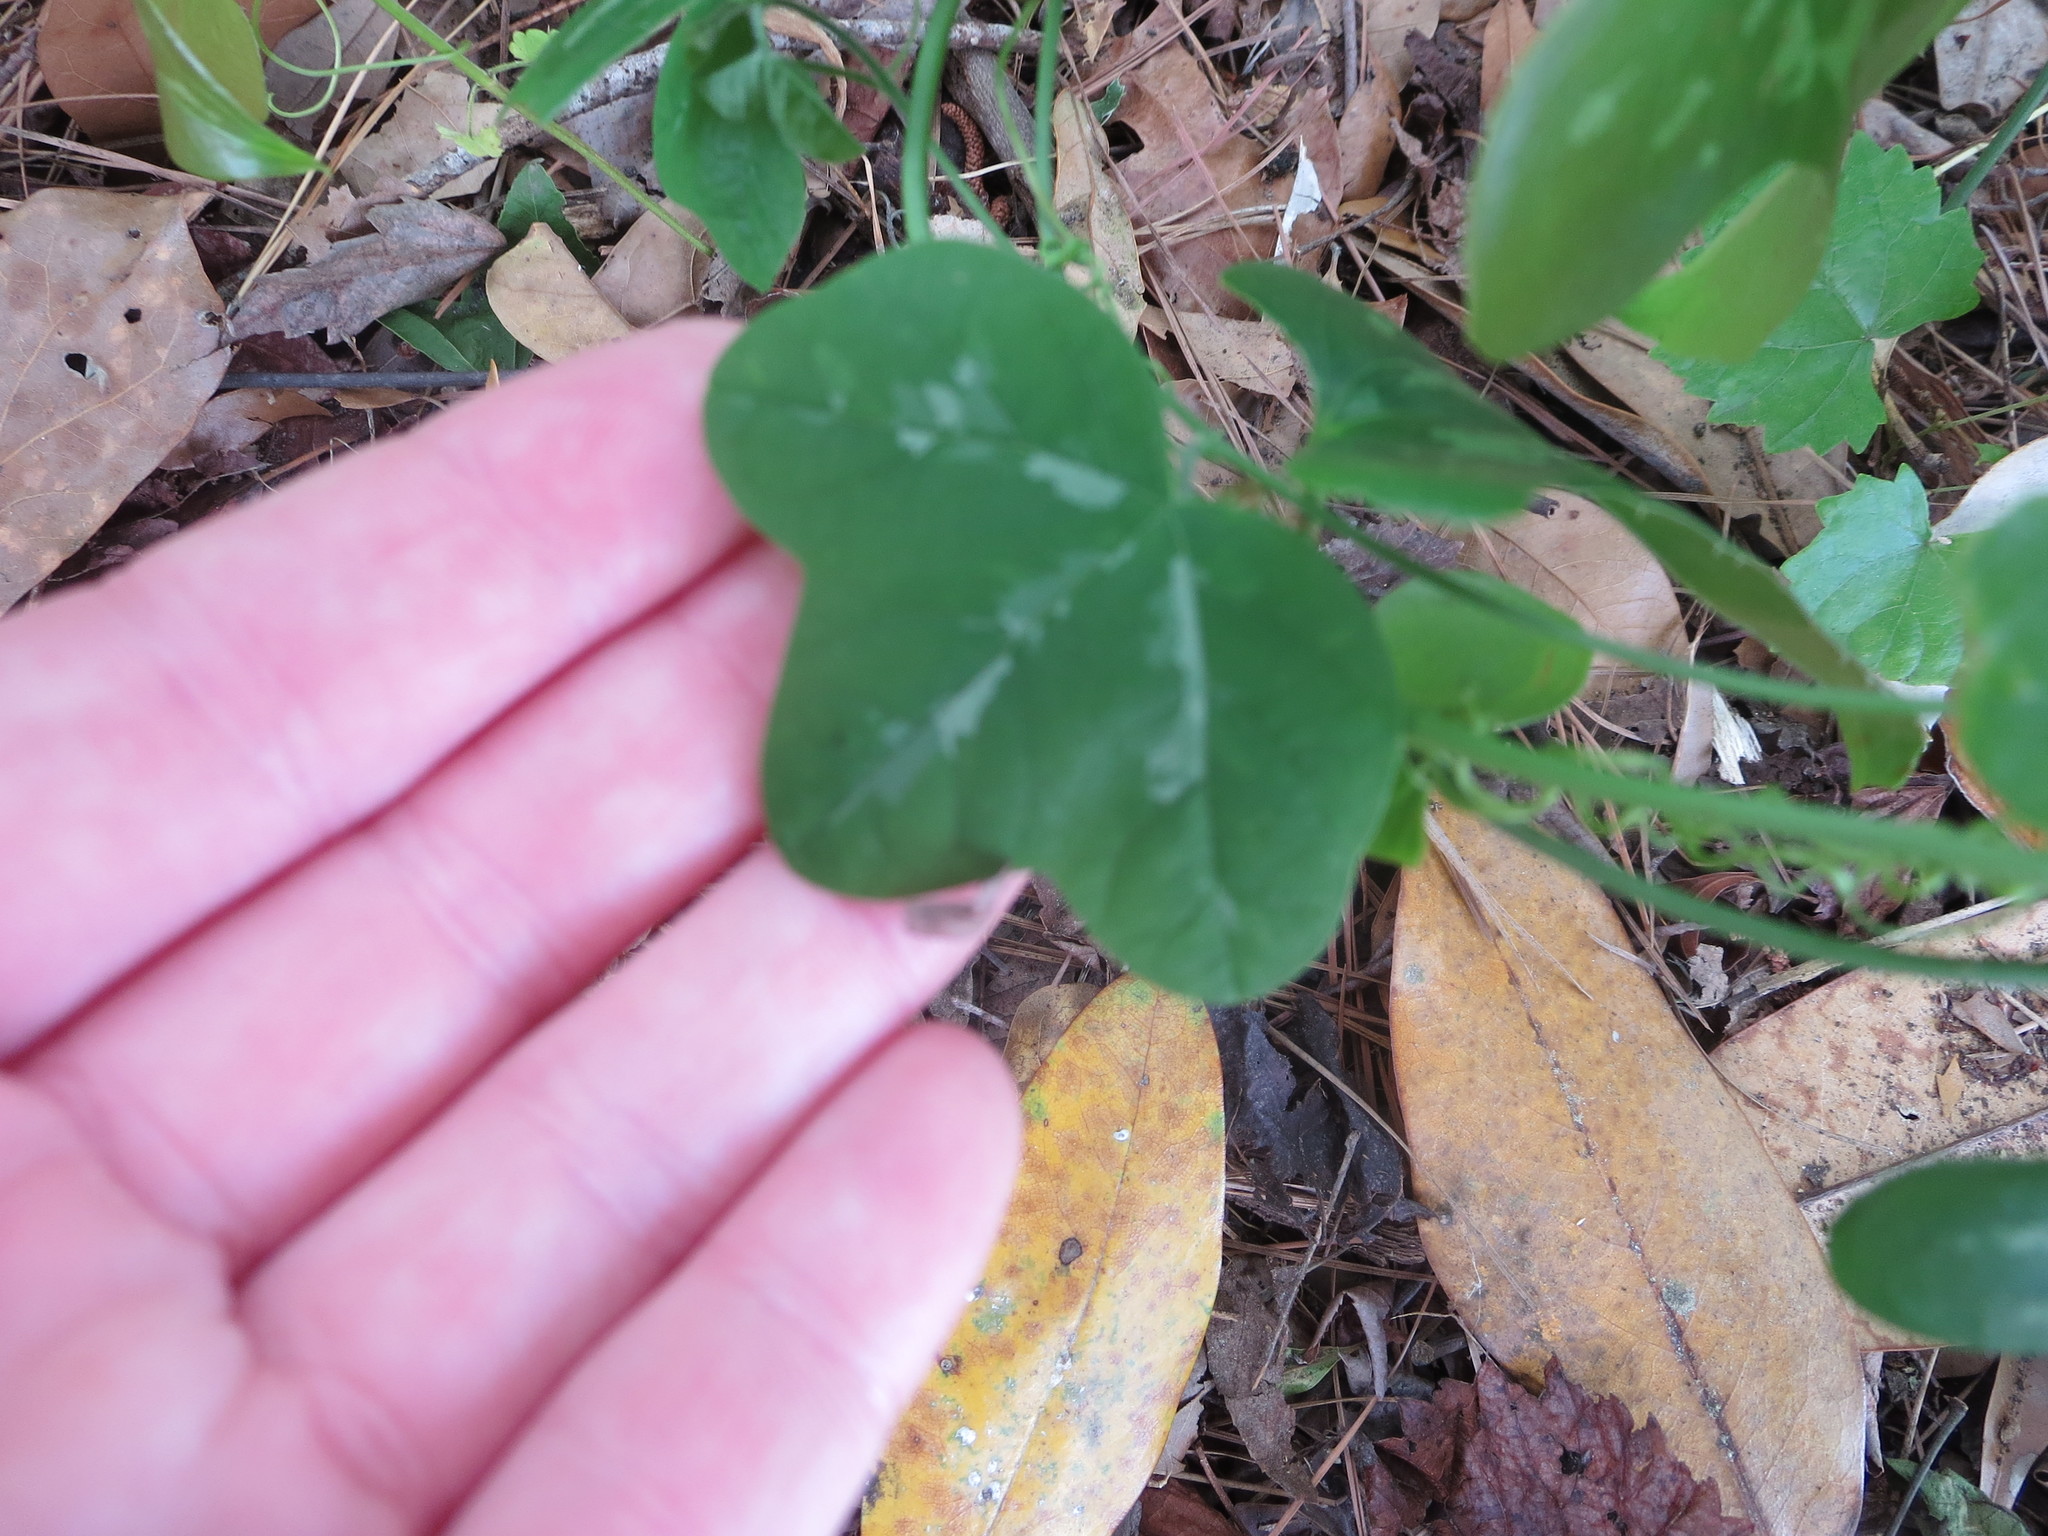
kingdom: Plantae
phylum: Tracheophyta
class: Magnoliopsida
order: Malpighiales
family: Passifloraceae
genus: Passiflora
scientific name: Passiflora lutea
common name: Yellow passionflower
